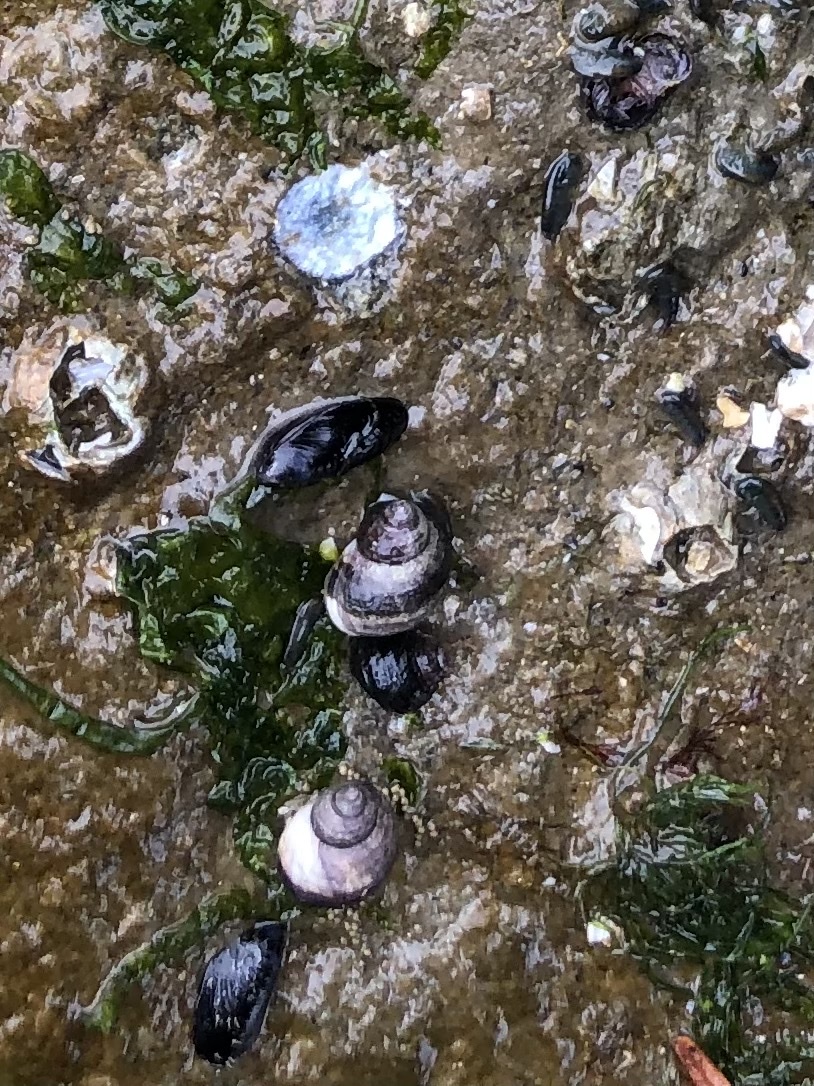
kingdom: Animalia
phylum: Mollusca
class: Gastropoda
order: Trochida
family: Tegulidae
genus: Tegula
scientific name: Tegula funebralis
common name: Black tegula
